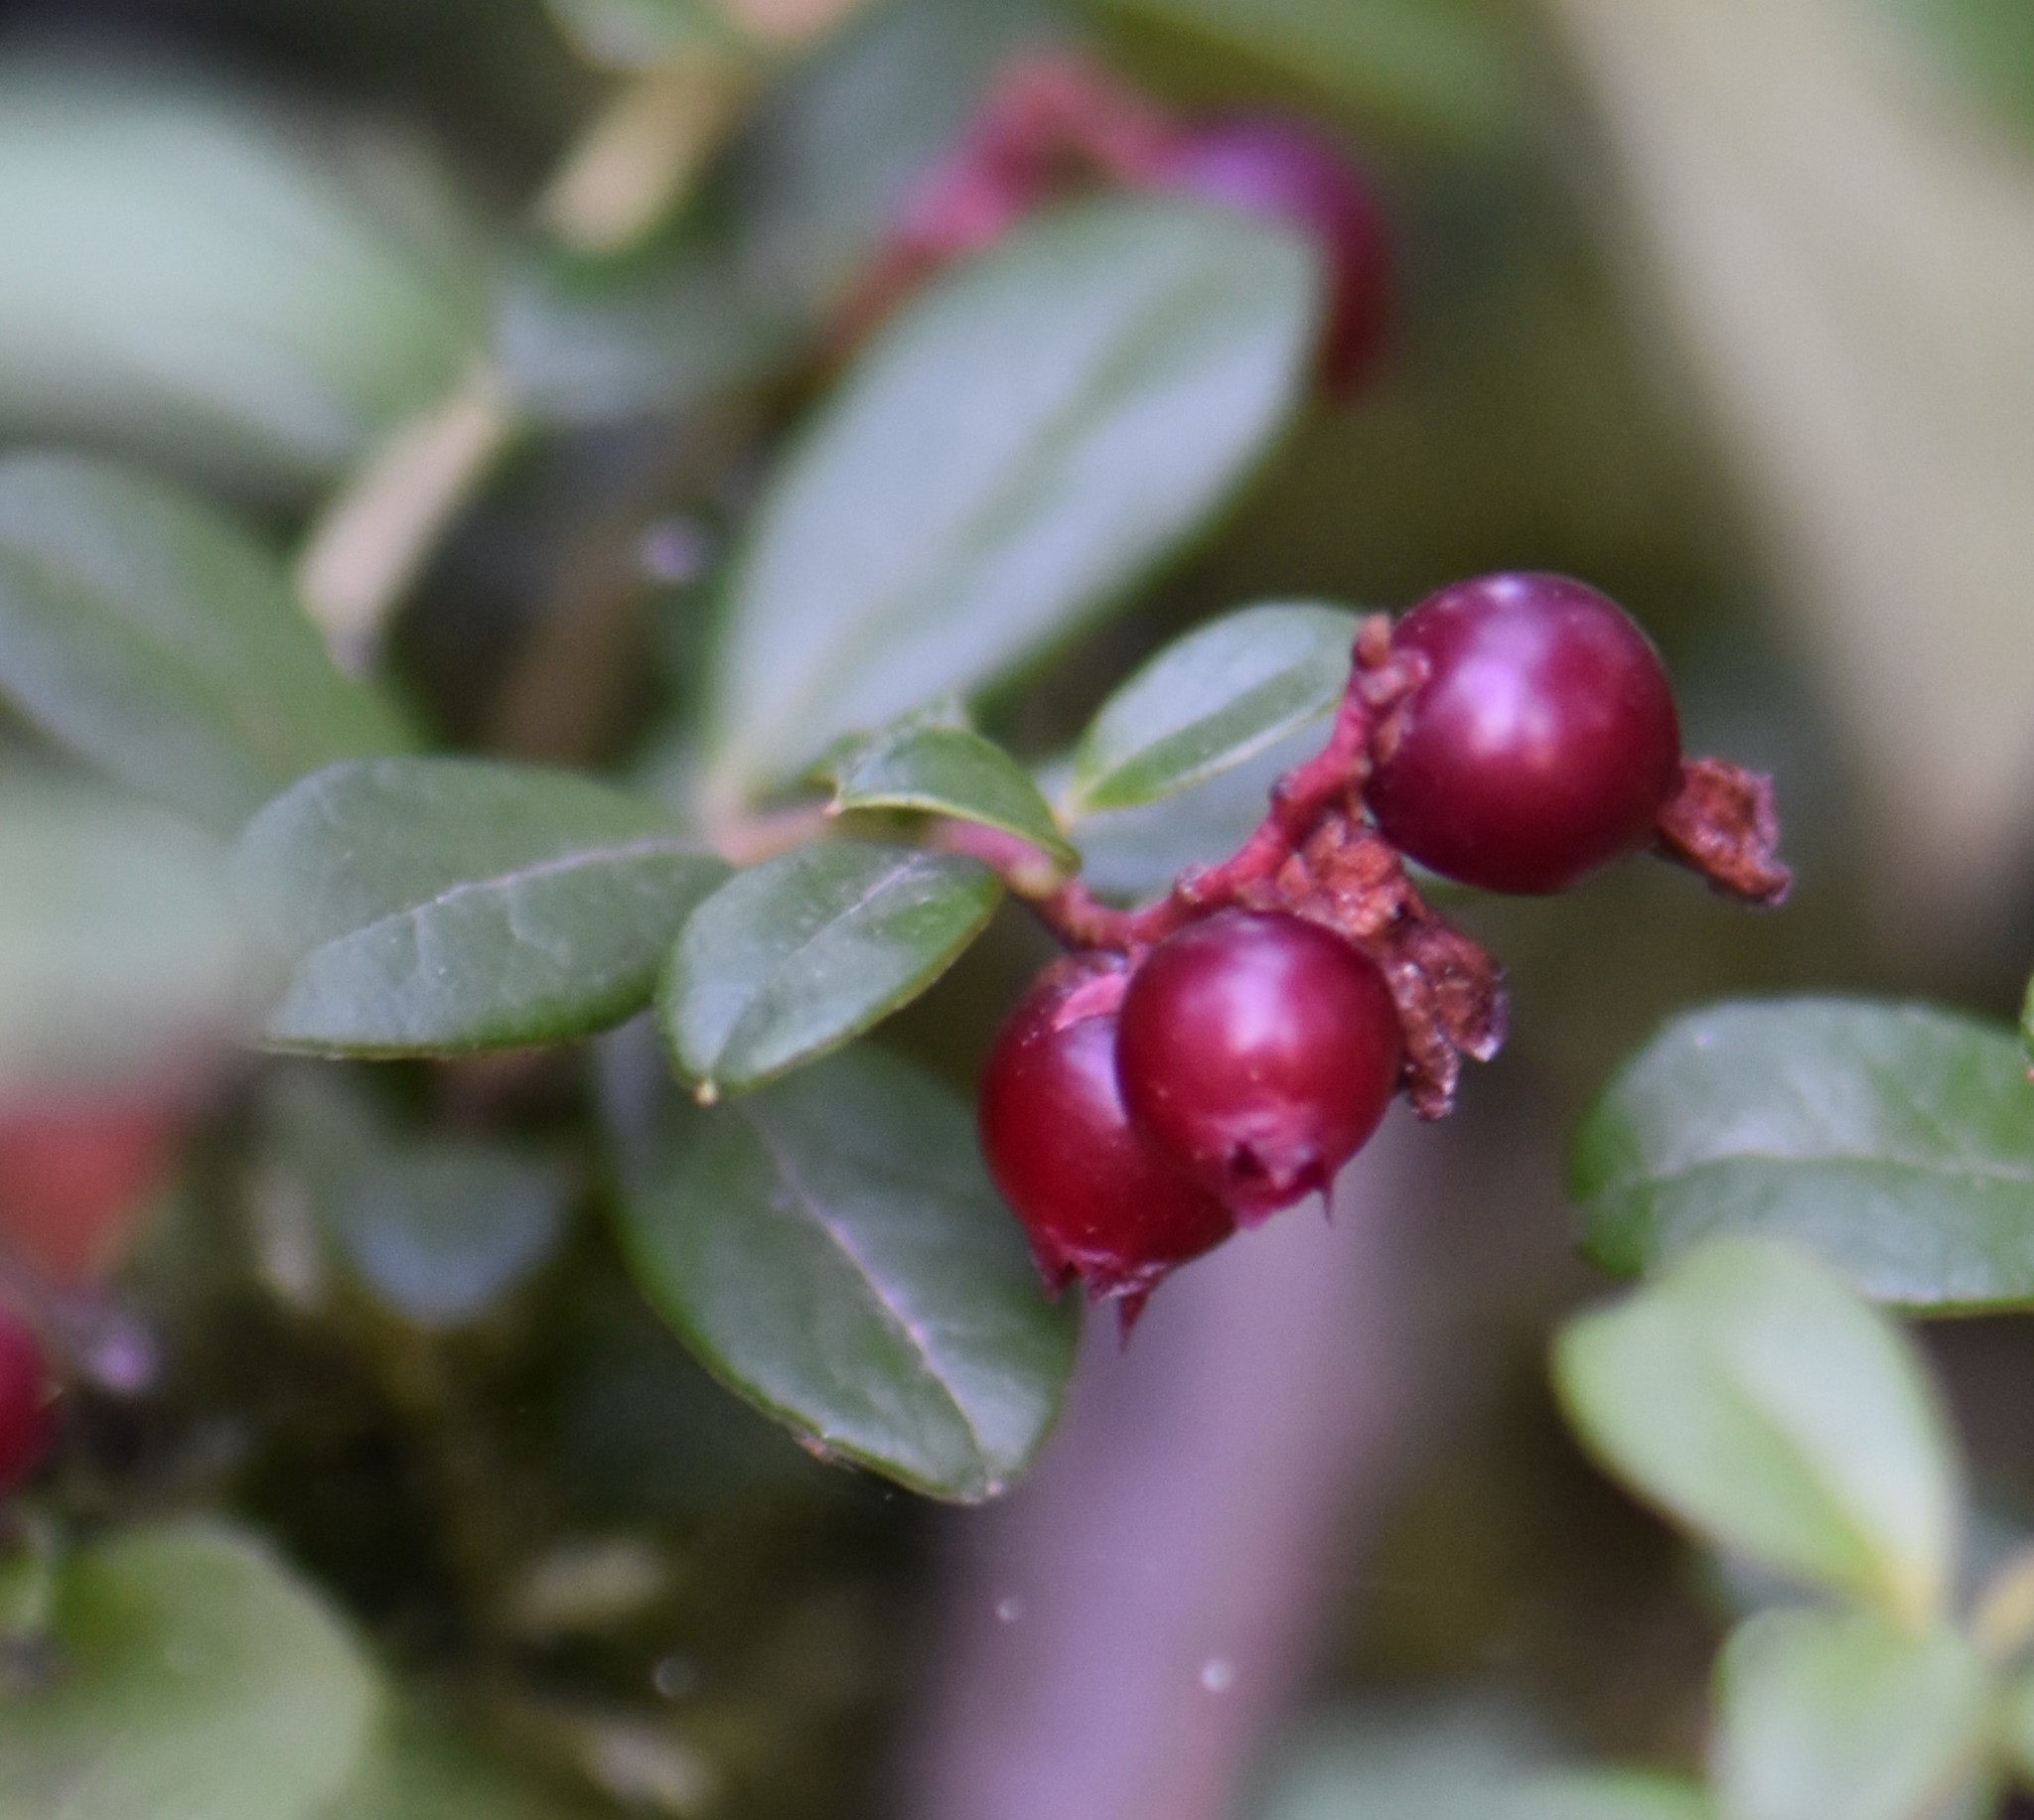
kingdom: Plantae
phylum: Tracheophyta
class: Magnoliopsida
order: Ericales
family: Ericaceae
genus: Vaccinium
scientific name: Vaccinium vitis-idaea
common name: Cowberry
